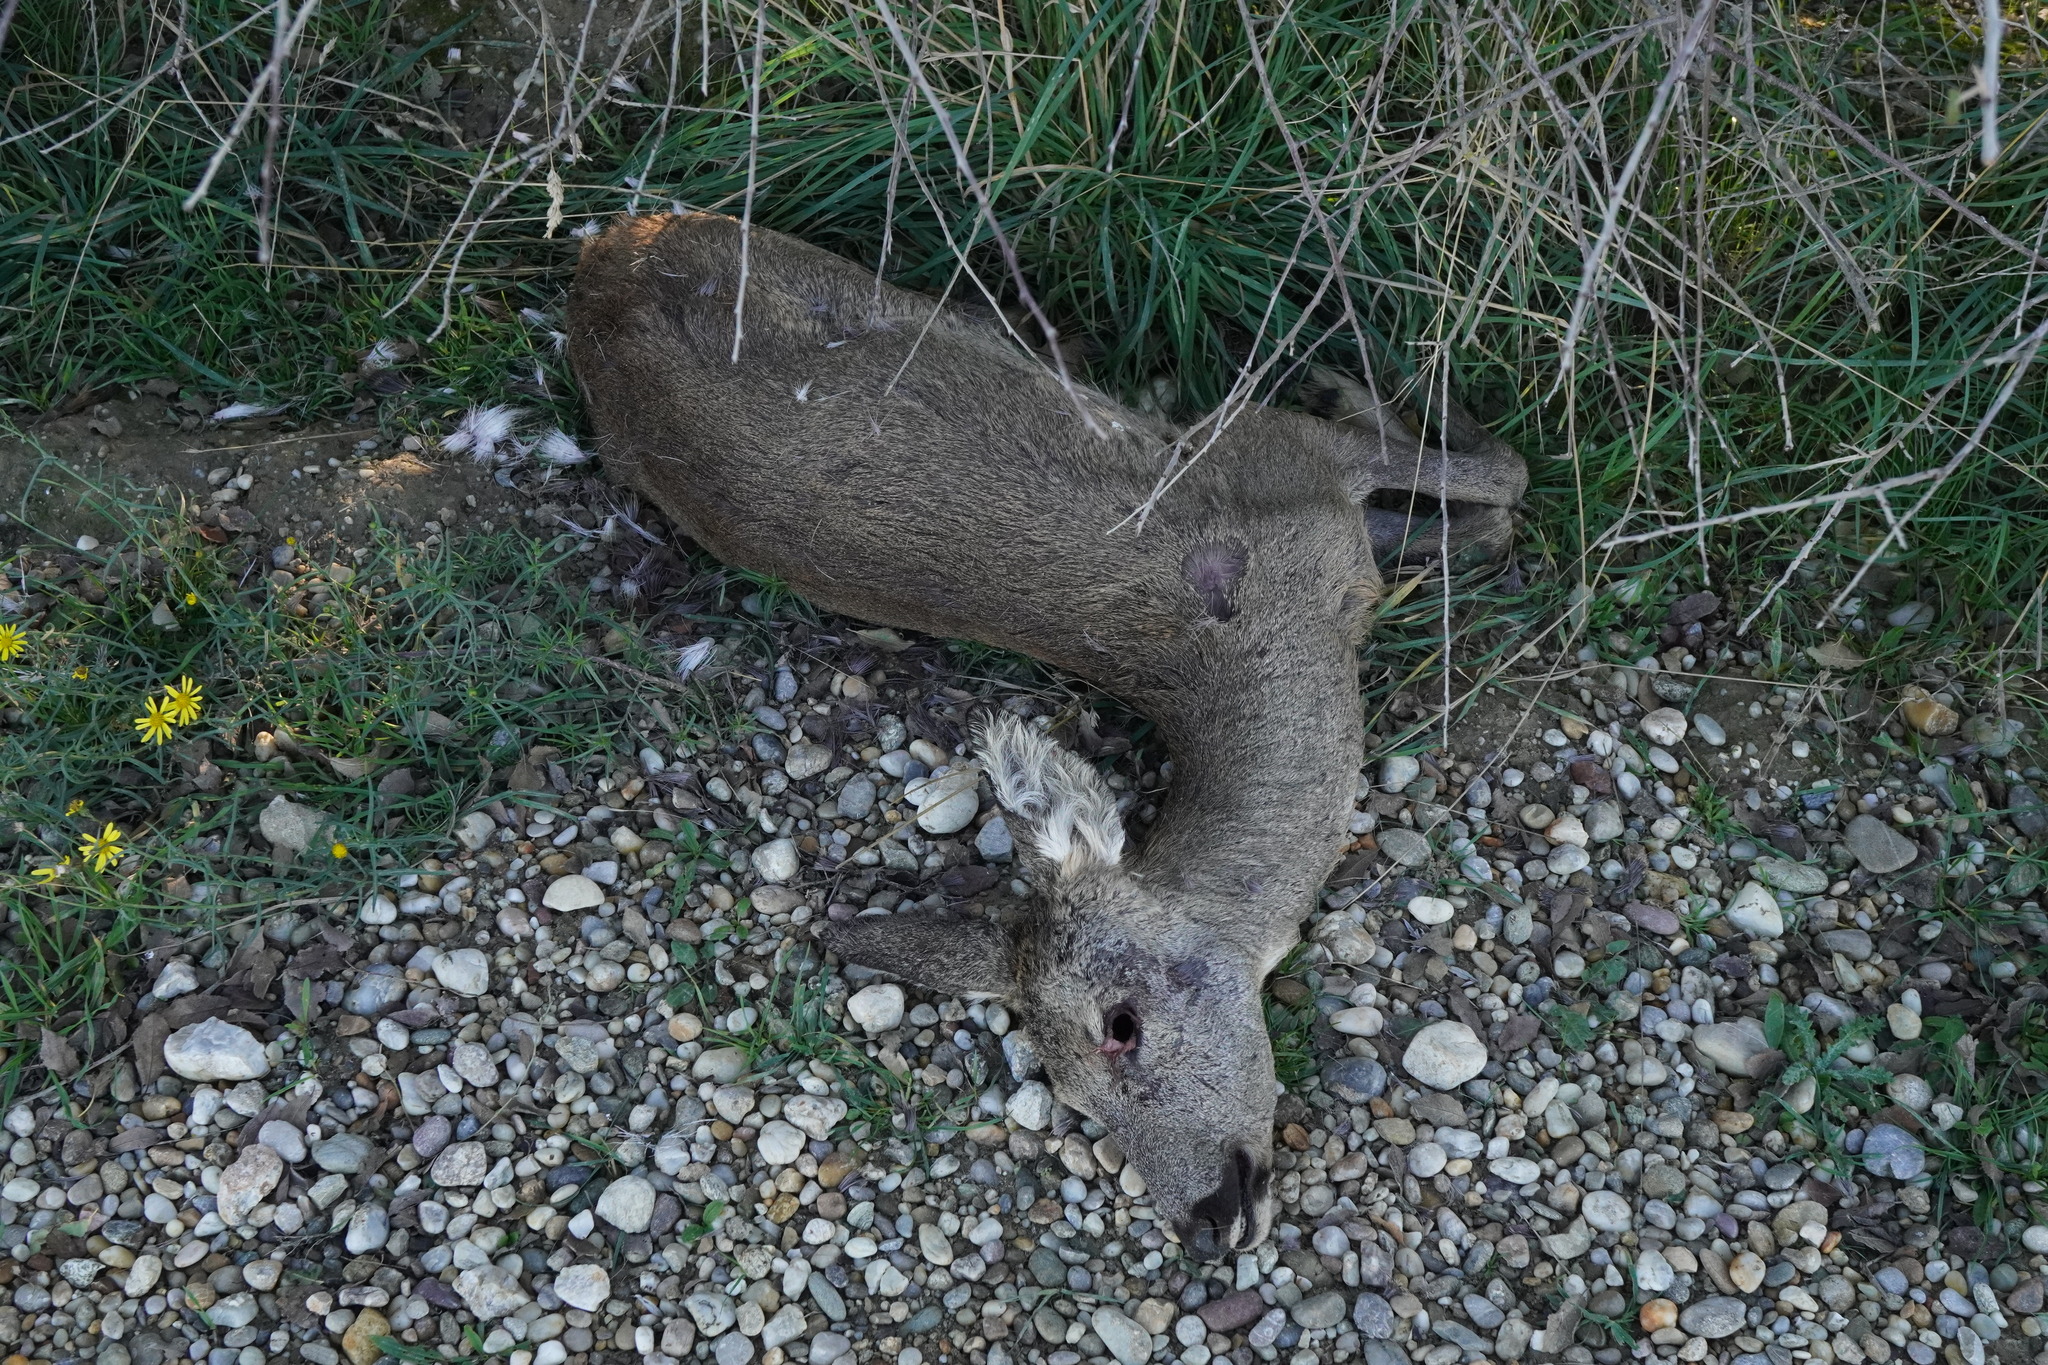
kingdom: Animalia
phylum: Chordata
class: Mammalia
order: Artiodactyla
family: Cervidae
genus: Capreolus
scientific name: Capreolus capreolus
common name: Western roe deer
